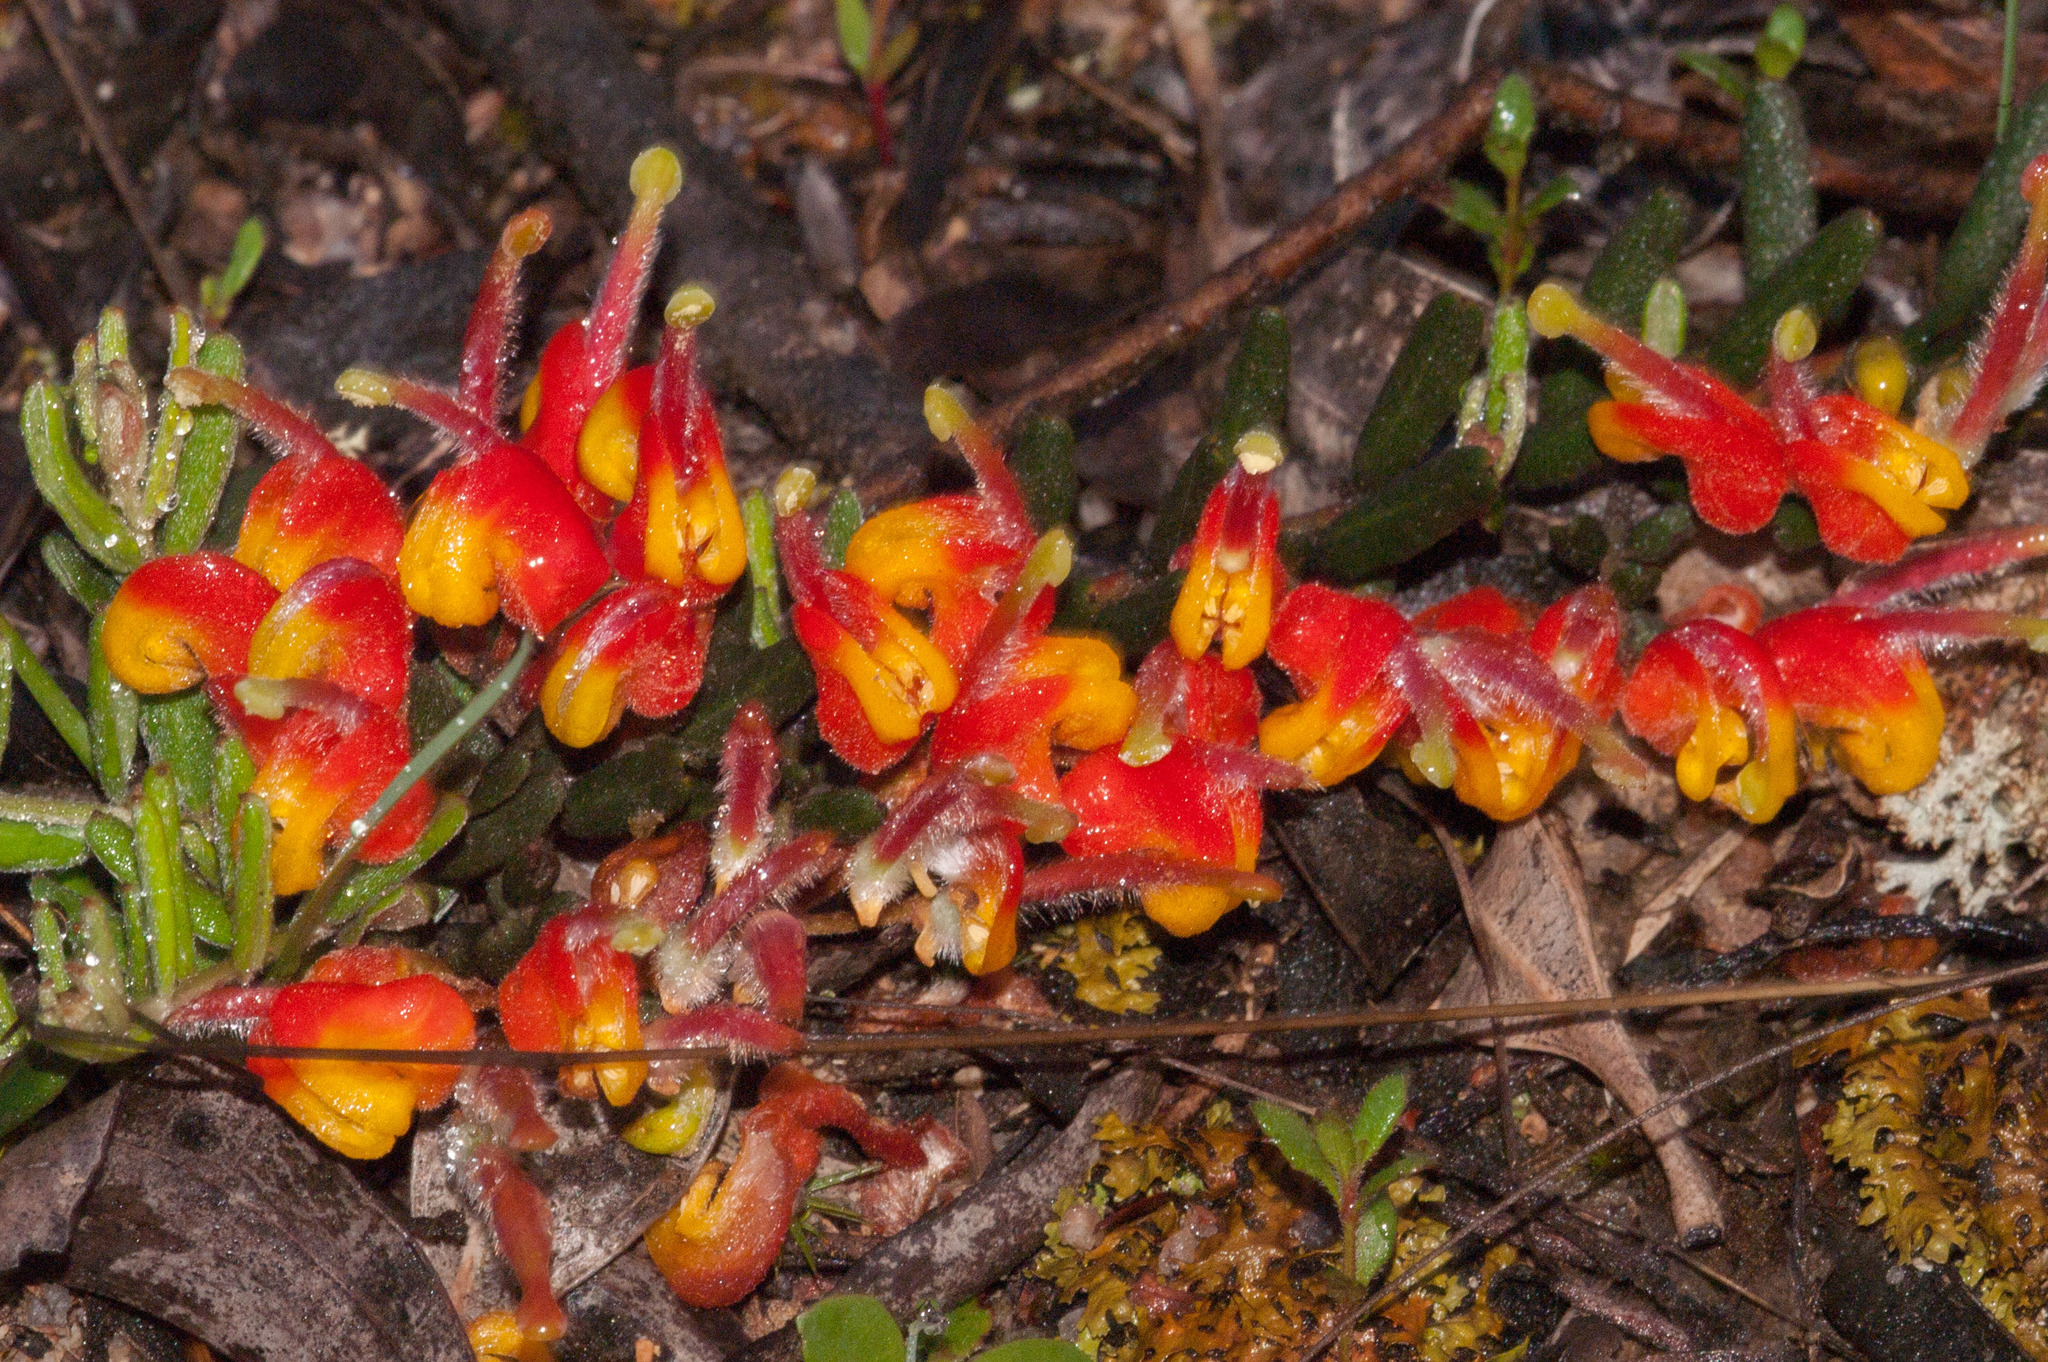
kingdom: Plantae
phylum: Tracheophyta
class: Magnoliopsida
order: Proteales
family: Proteaceae
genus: Grevillea
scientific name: Grevillea alpina
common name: Catclaws grevillea
